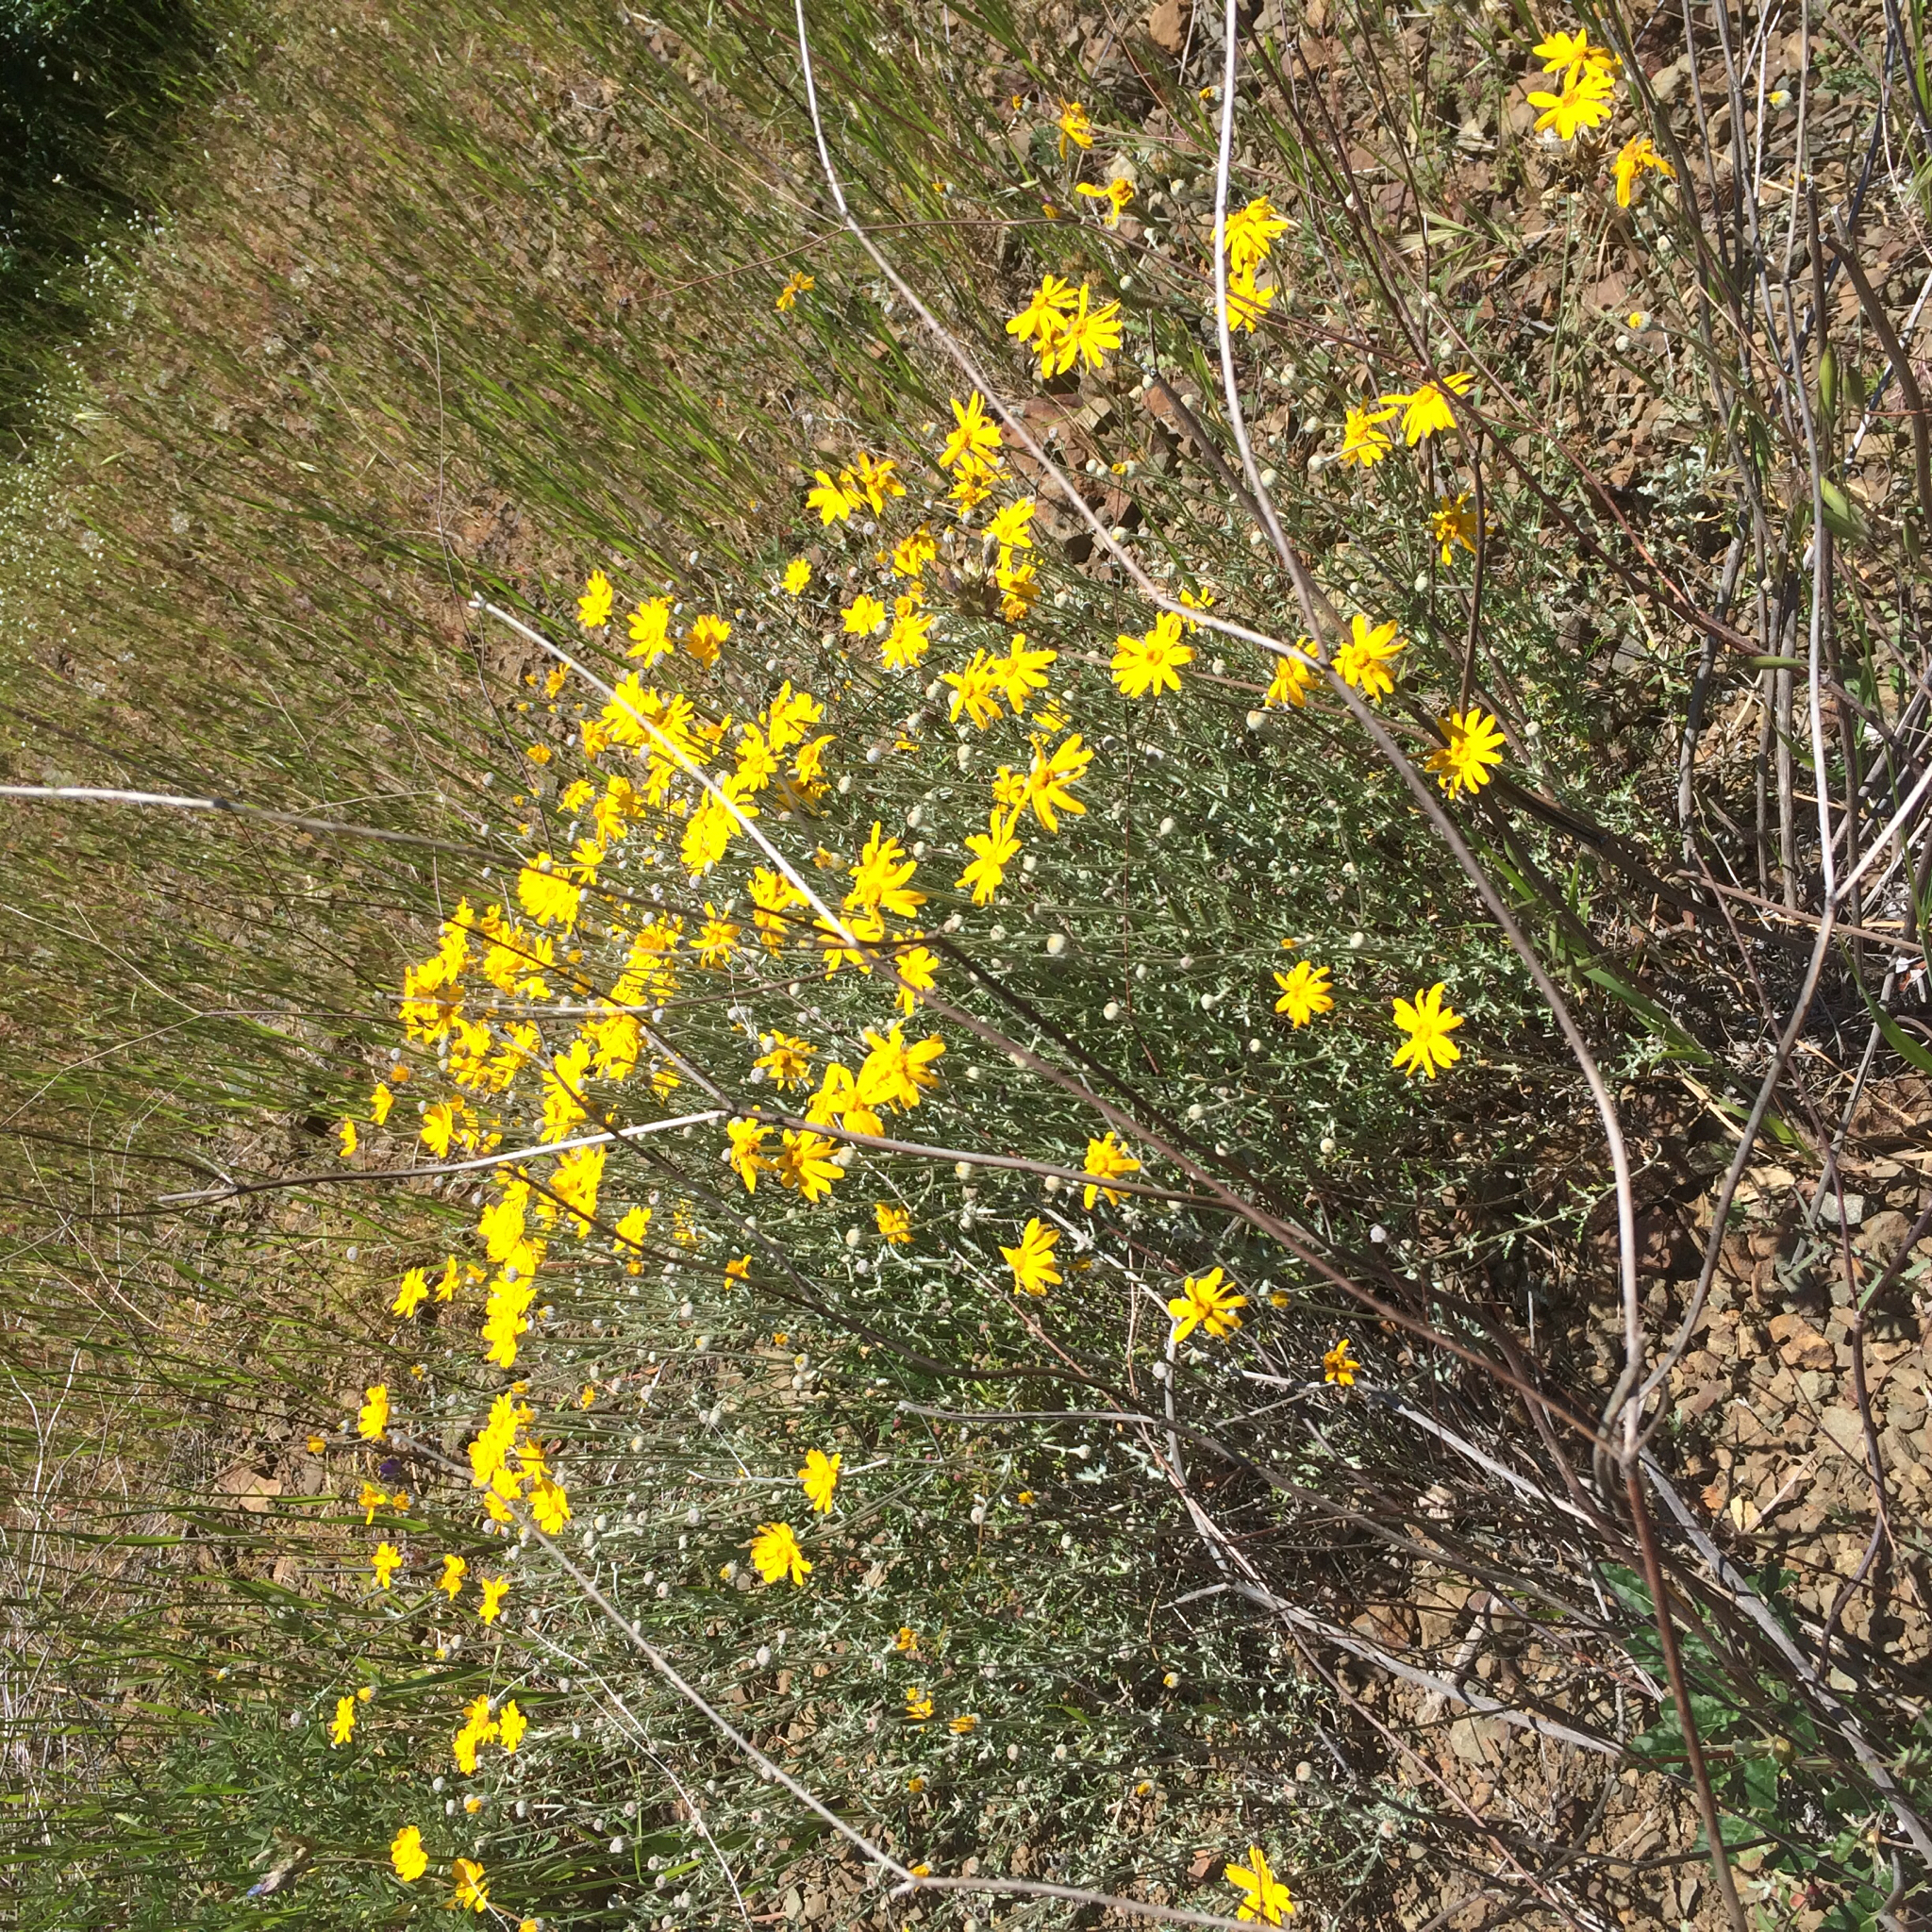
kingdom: Plantae
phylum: Tracheophyta
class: Magnoliopsida
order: Asterales
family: Asteraceae
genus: Eriophyllum
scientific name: Eriophyllum lanatum
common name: Common woolly-sunflower
